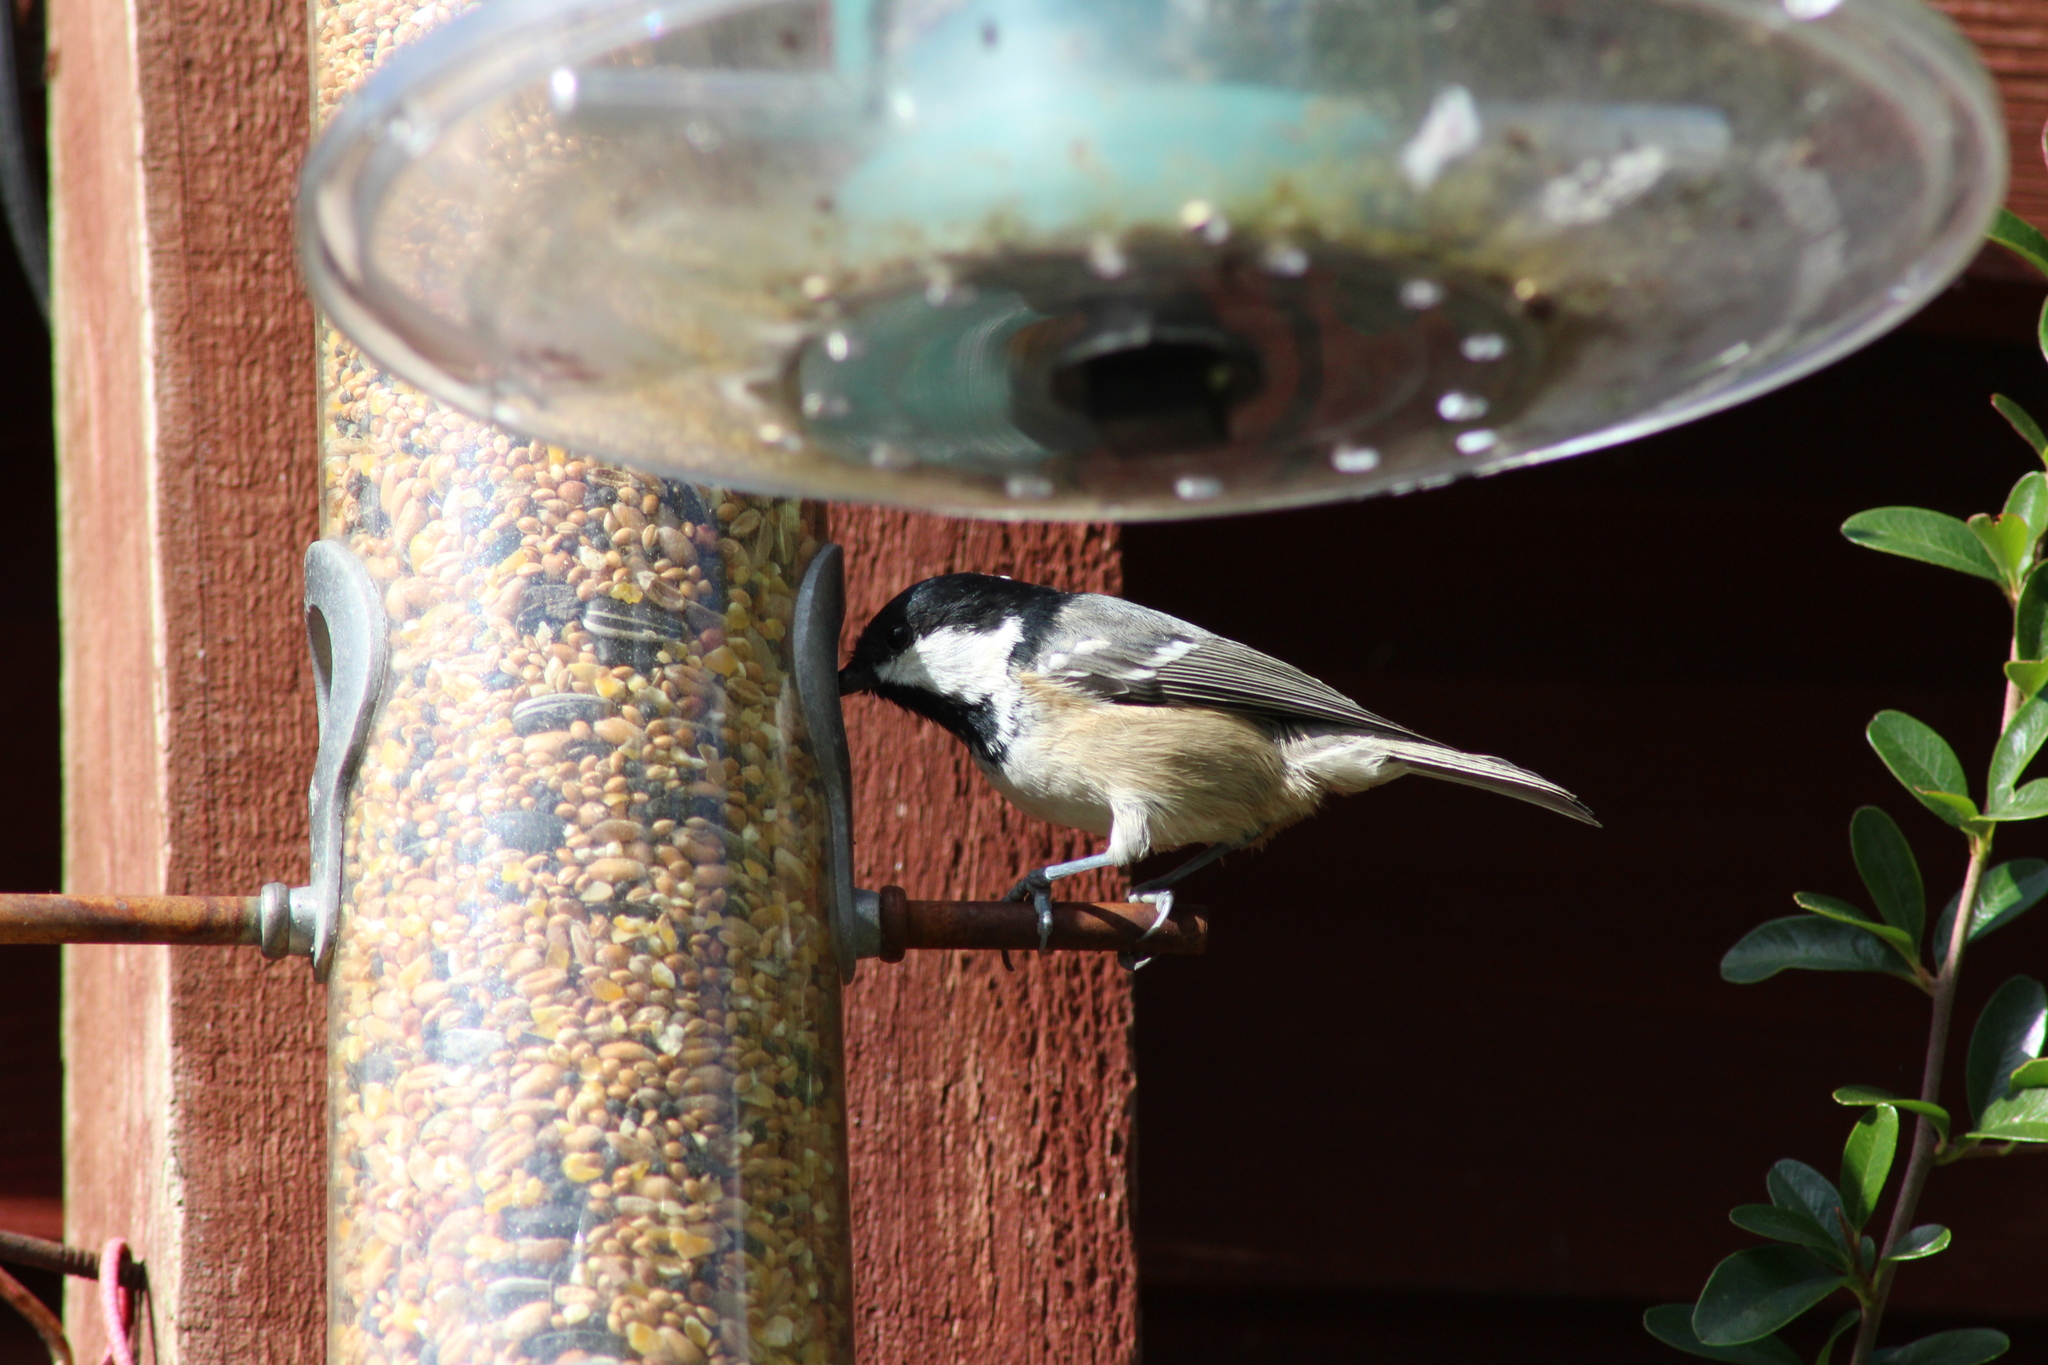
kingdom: Animalia
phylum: Chordata
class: Aves
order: Passeriformes
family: Paridae
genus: Periparus
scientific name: Periparus ater
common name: Coal tit
